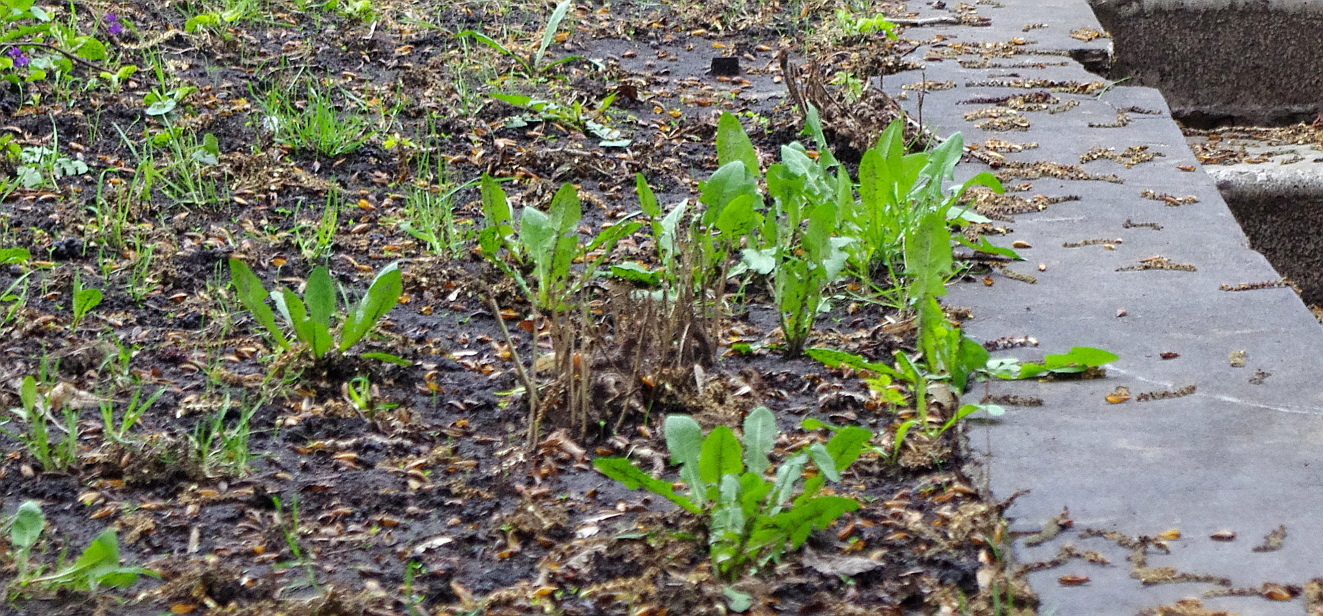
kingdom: Plantae
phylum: Tracheophyta
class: Magnoliopsida
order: Asterales
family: Asteraceae
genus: Taraxacum
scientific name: Taraxacum officinale
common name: Common dandelion
